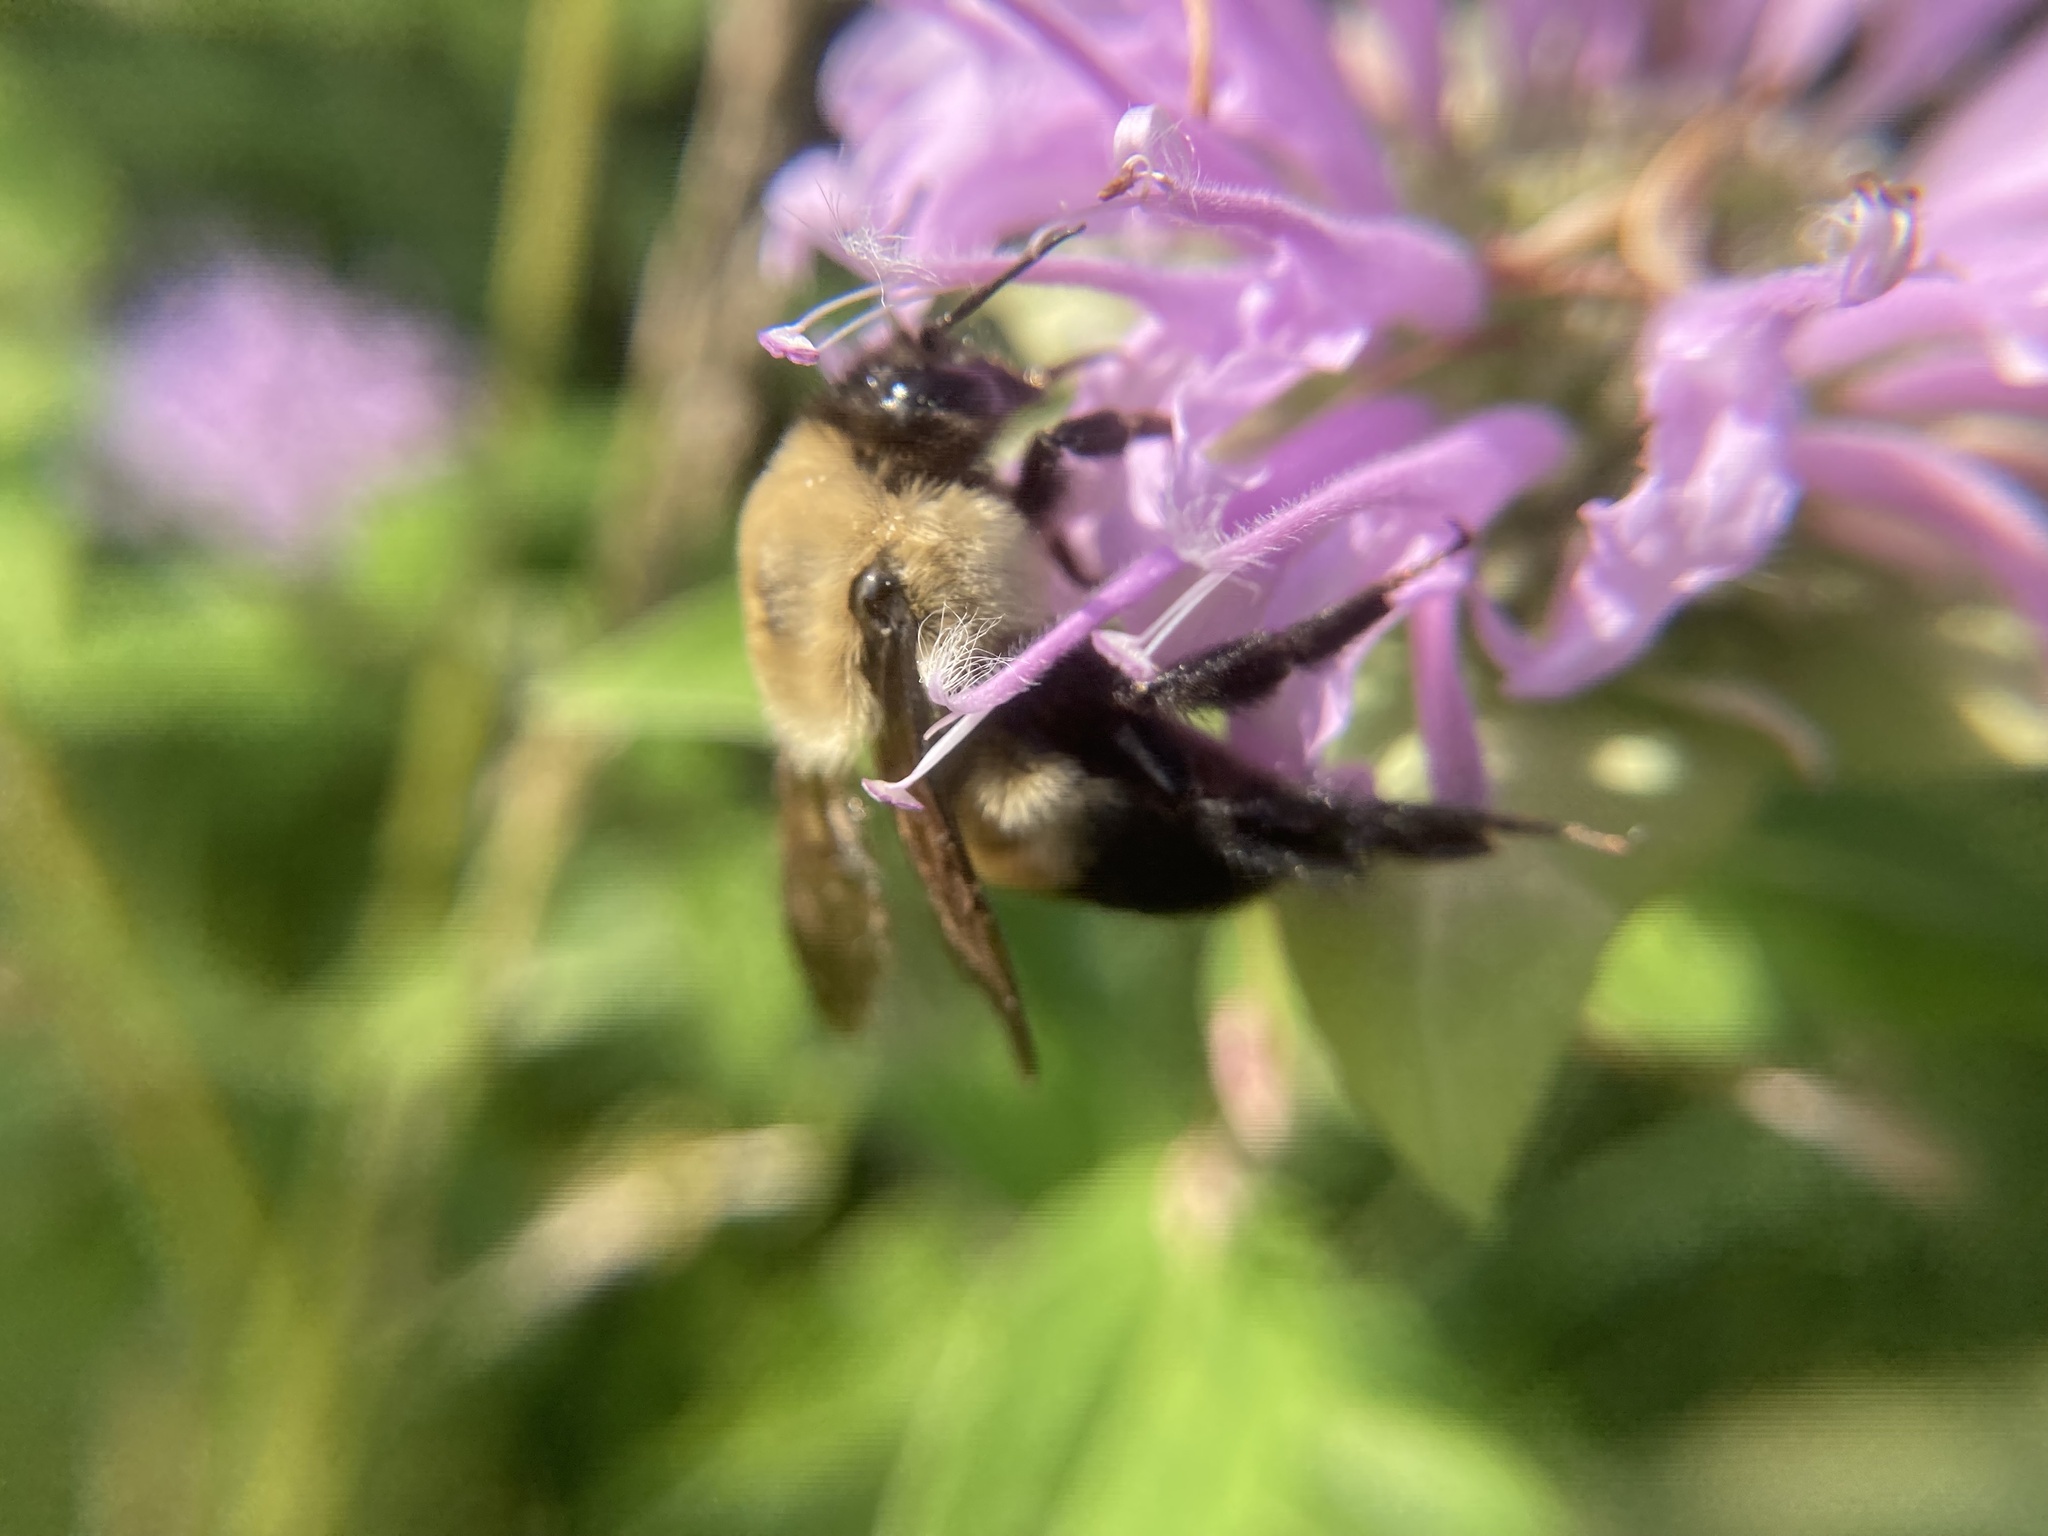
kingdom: Animalia
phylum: Arthropoda
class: Insecta
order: Hymenoptera
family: Apidae
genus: Bombus
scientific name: Bombus griseocollis
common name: Brown-belted bumble bee
